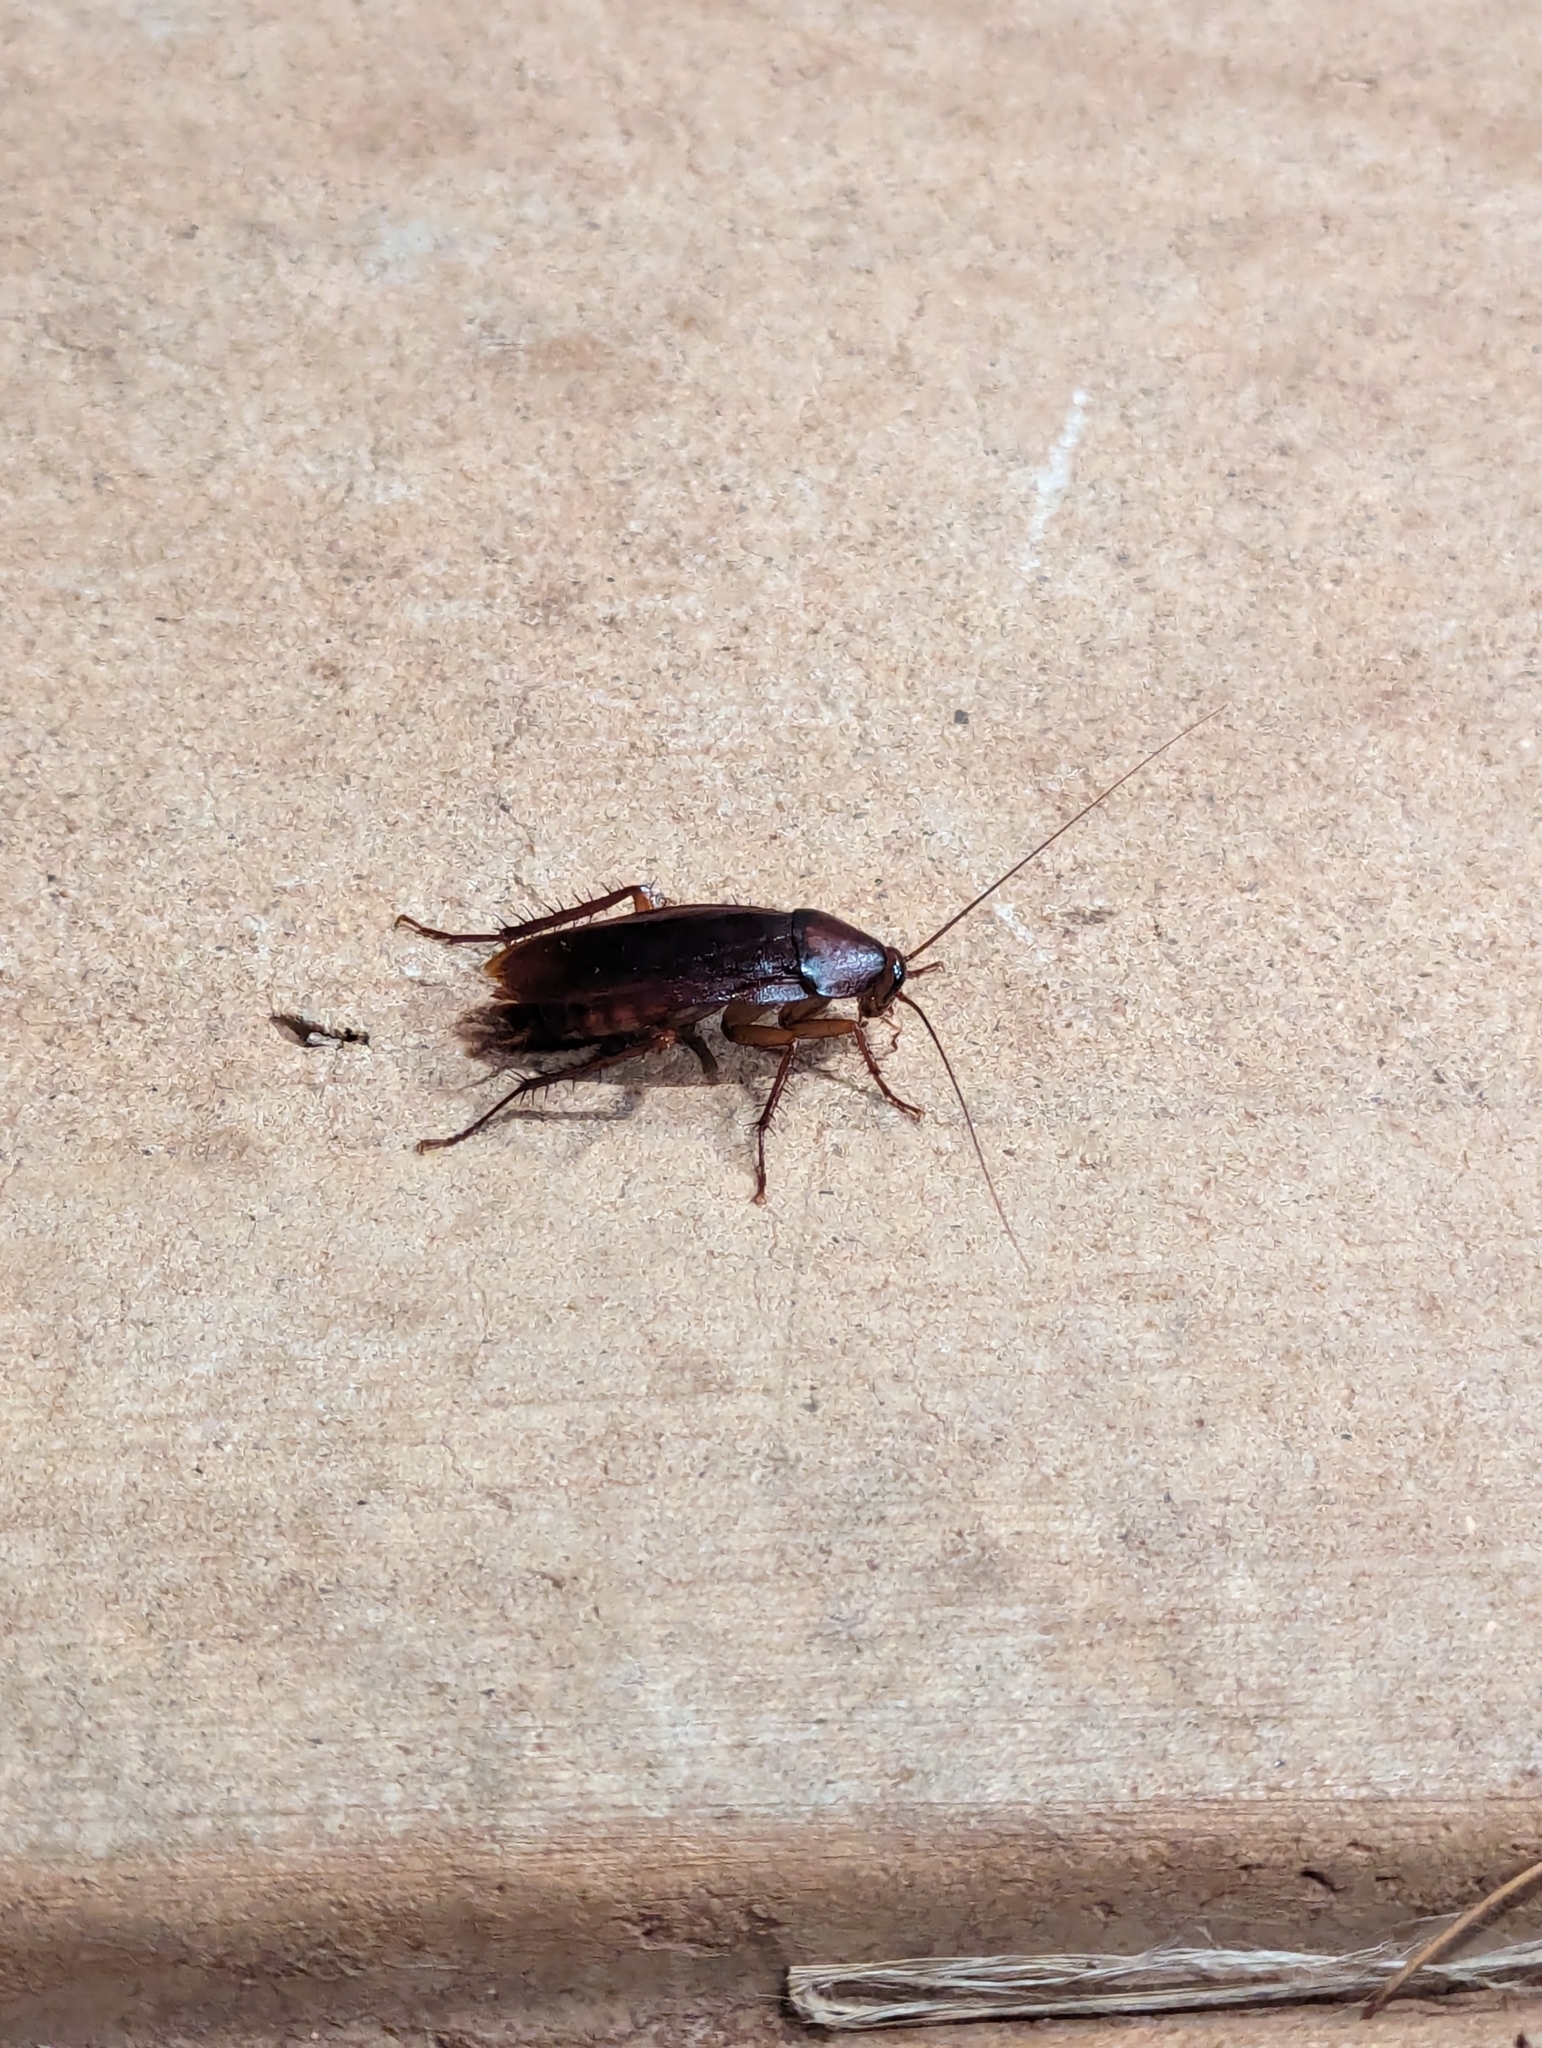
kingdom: Animalia
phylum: Arthropoda
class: Insecta
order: Blattodea
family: Blattidae
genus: Periplaneta
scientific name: Periplaneta americana
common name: American cockroach
